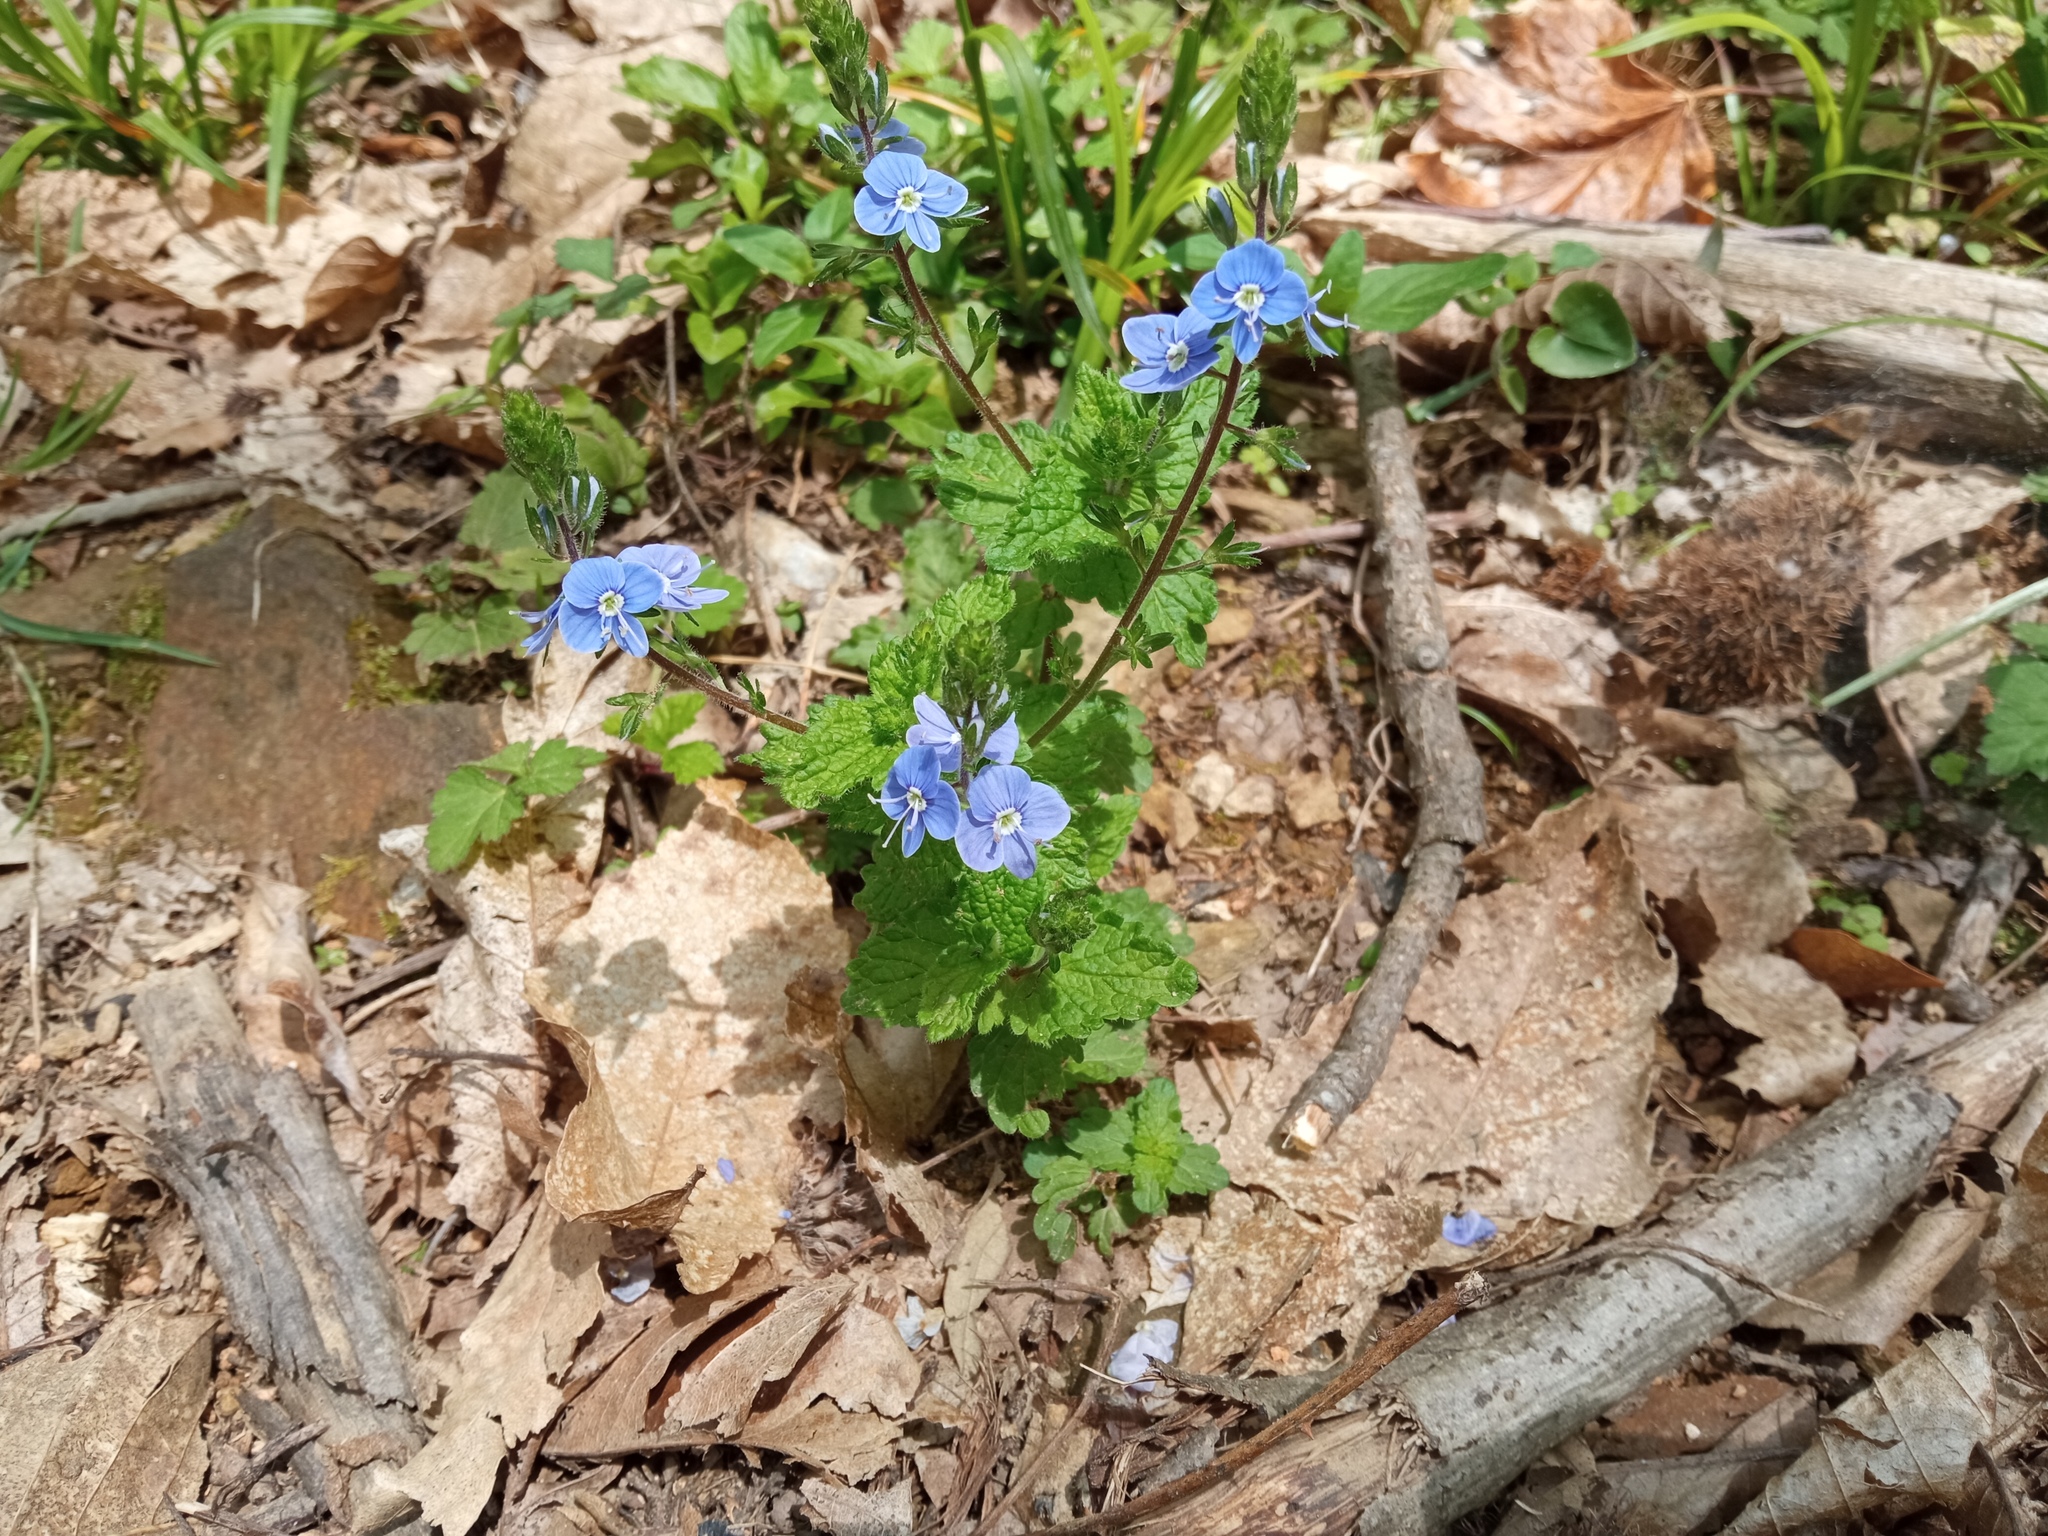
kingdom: Plantae
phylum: Tracheophyta
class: Magnoliopsida
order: Lamiales
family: Plantaginaceae
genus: Veronica
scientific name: Veronica chamaedrys
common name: Germander speedwell
